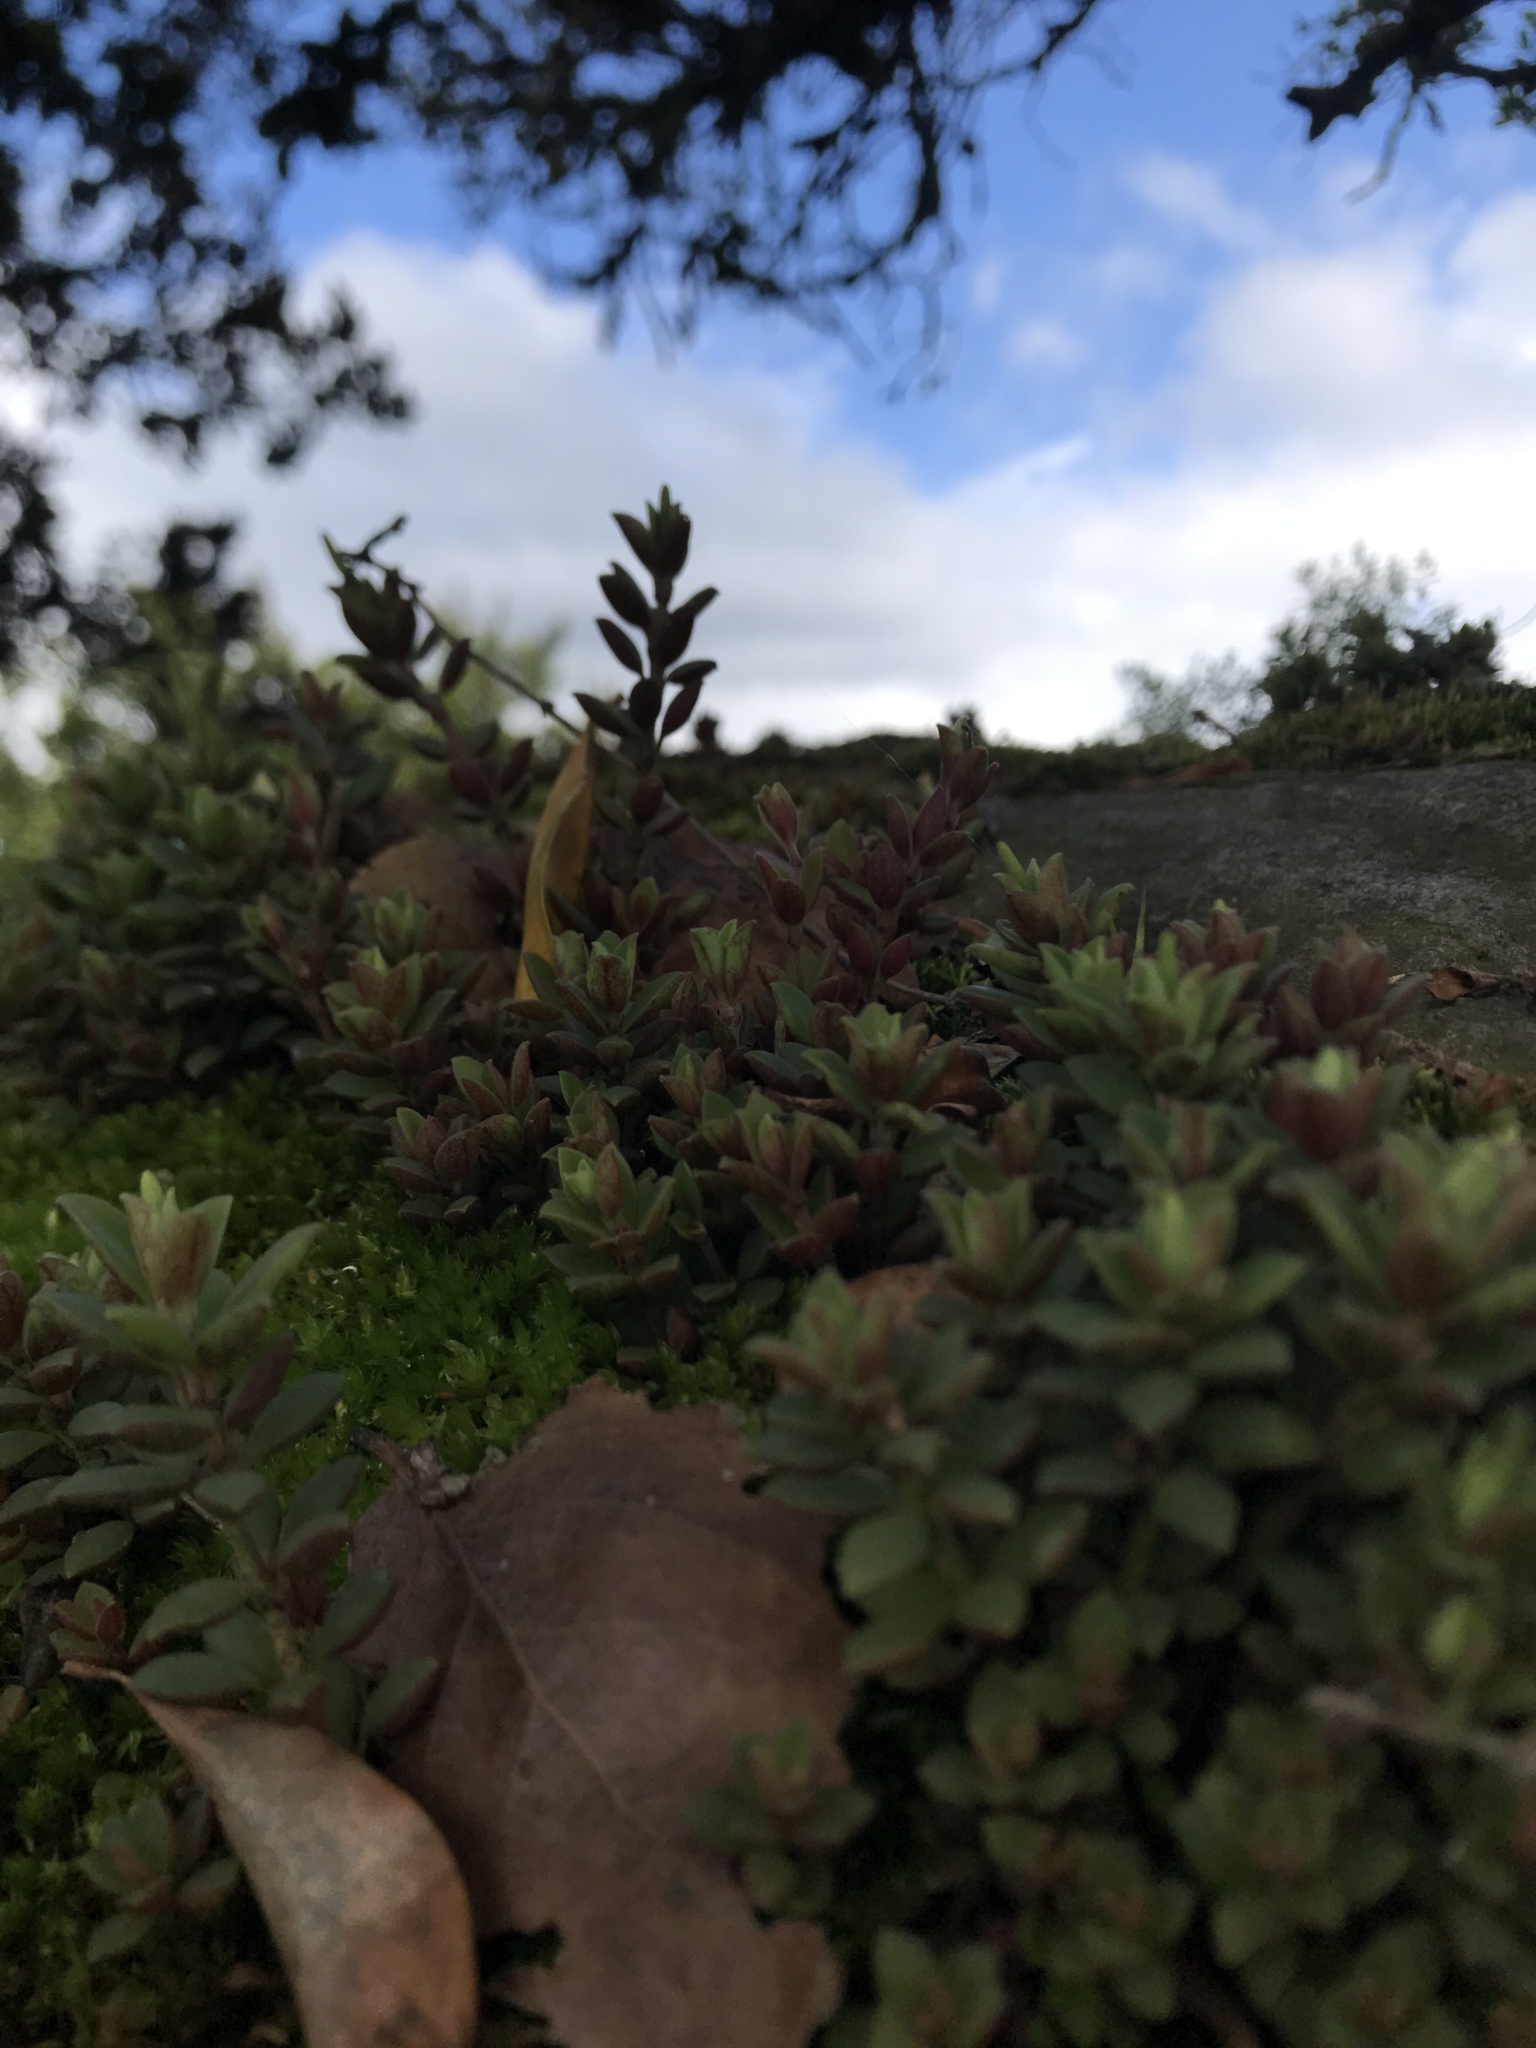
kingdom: Plantae
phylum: Tracheophyta
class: Magnoliopsida
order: Piperales
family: Piperaceae
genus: Peperomia
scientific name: Peperomia hartwegiana
